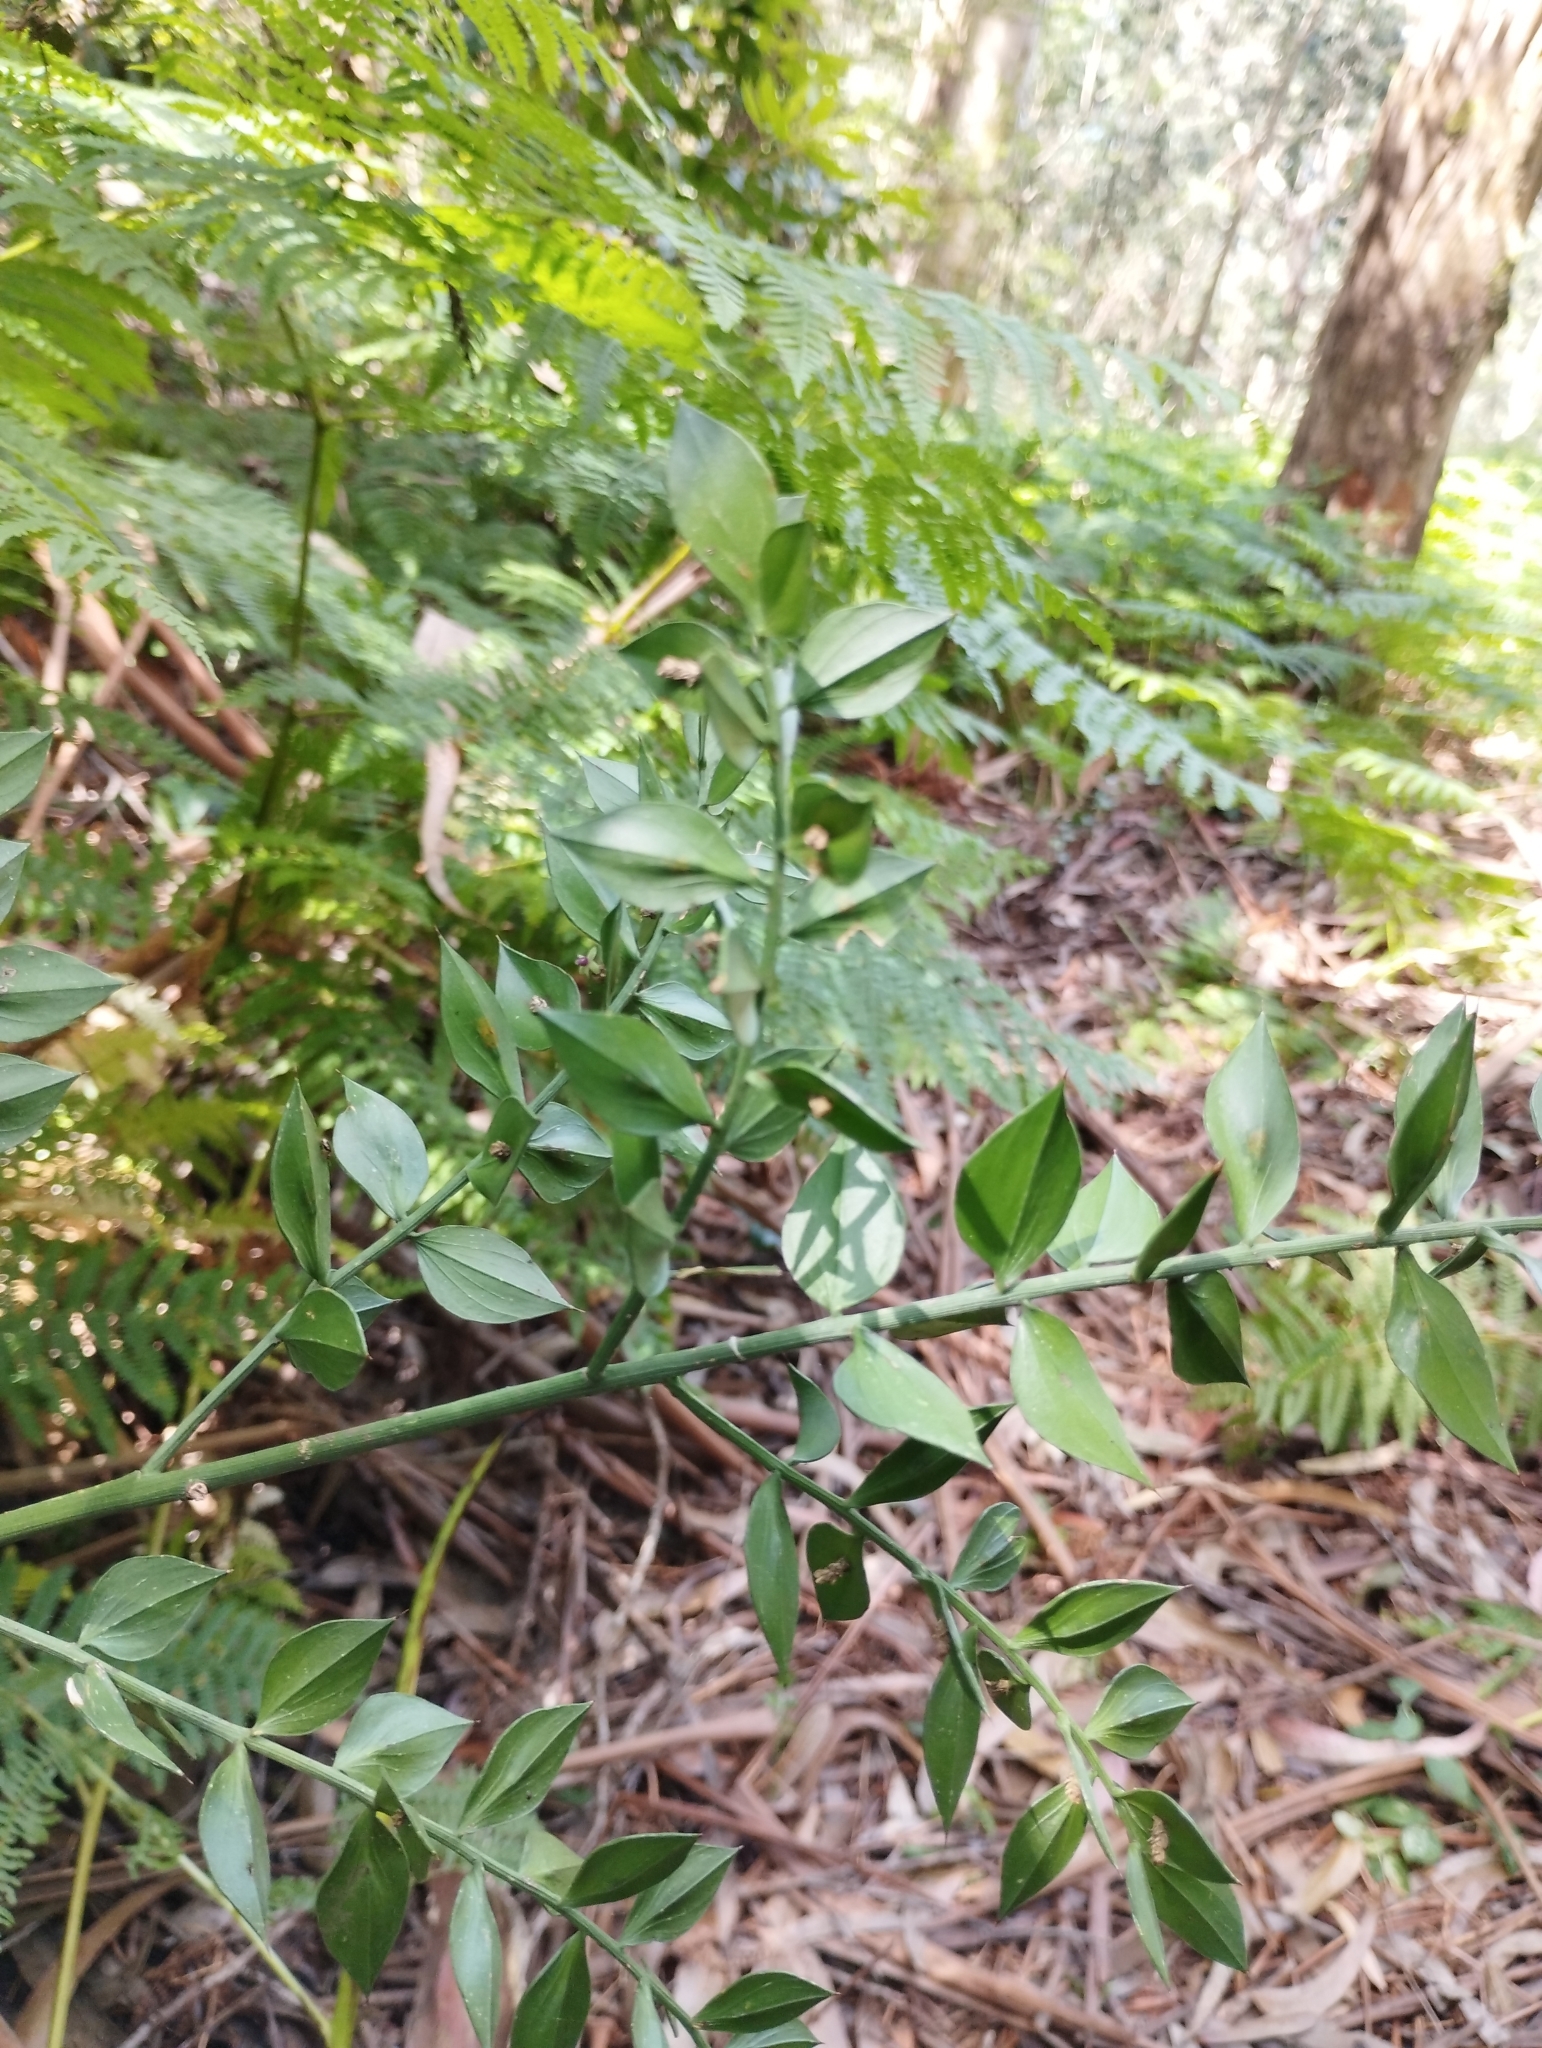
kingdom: Plantae
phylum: Tracheophyta
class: Liliopsida
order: Asparagales
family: Asparagaceae
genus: Ruscus
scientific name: Ruscus aculeatus
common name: Butcher's-broom
